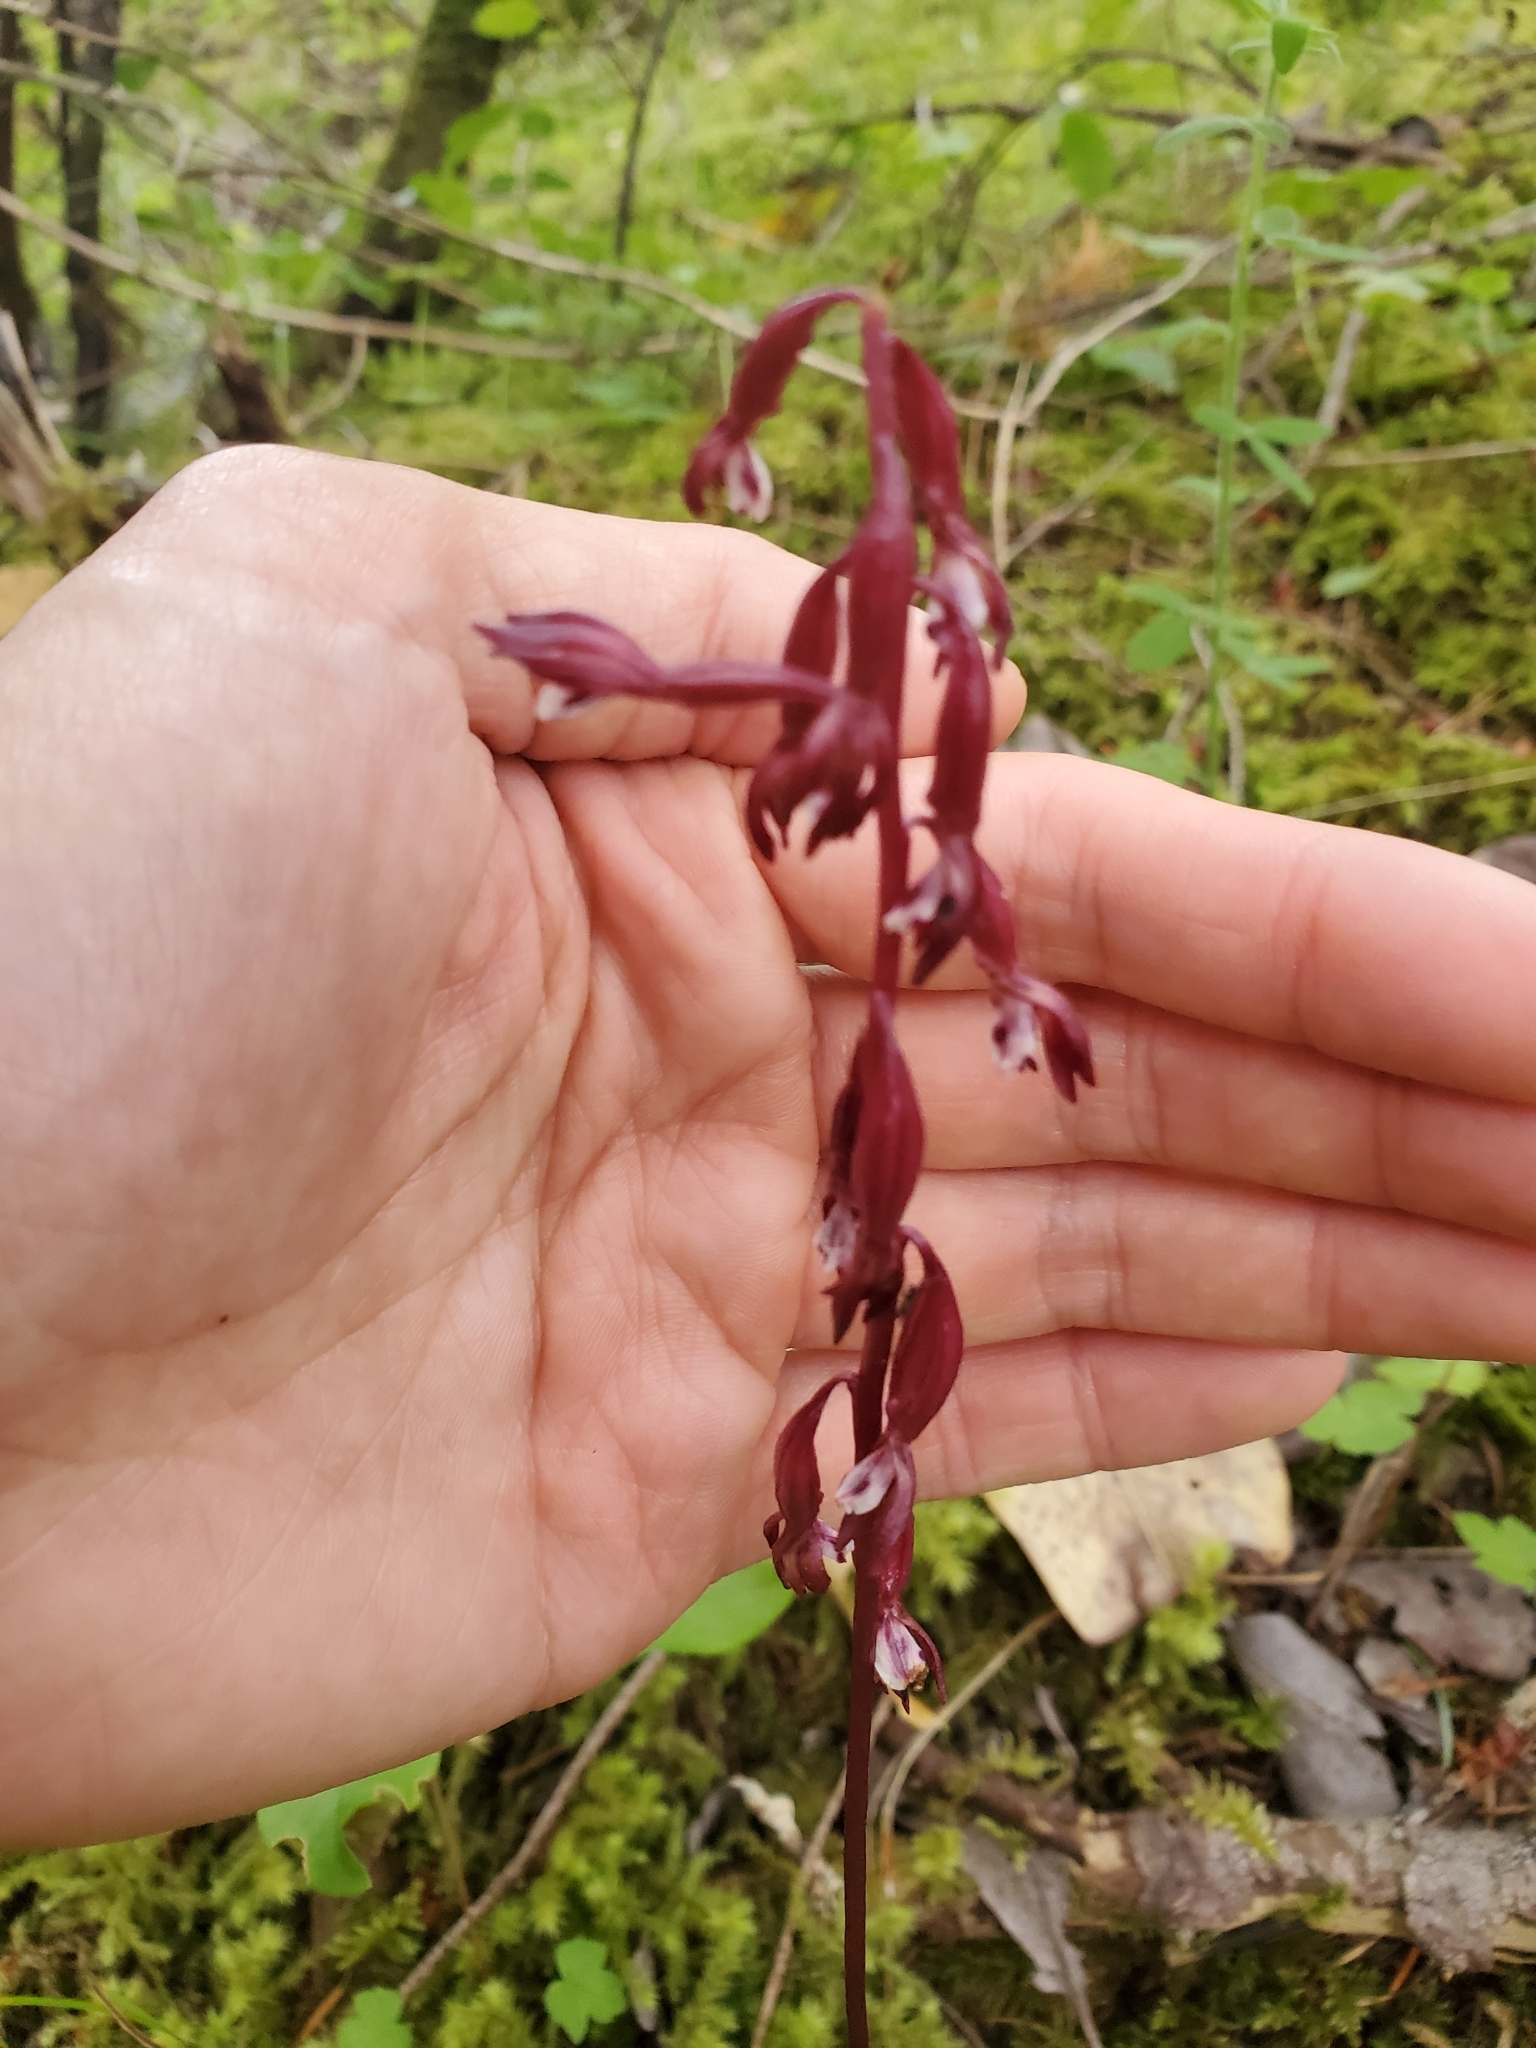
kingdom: Plantae
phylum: Tracheophyta
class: Liliopsida
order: Asparagales
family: Orchidaceae
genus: Corallorhiza
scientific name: Corallorhiza mertensiana
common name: Pacific coralroot
